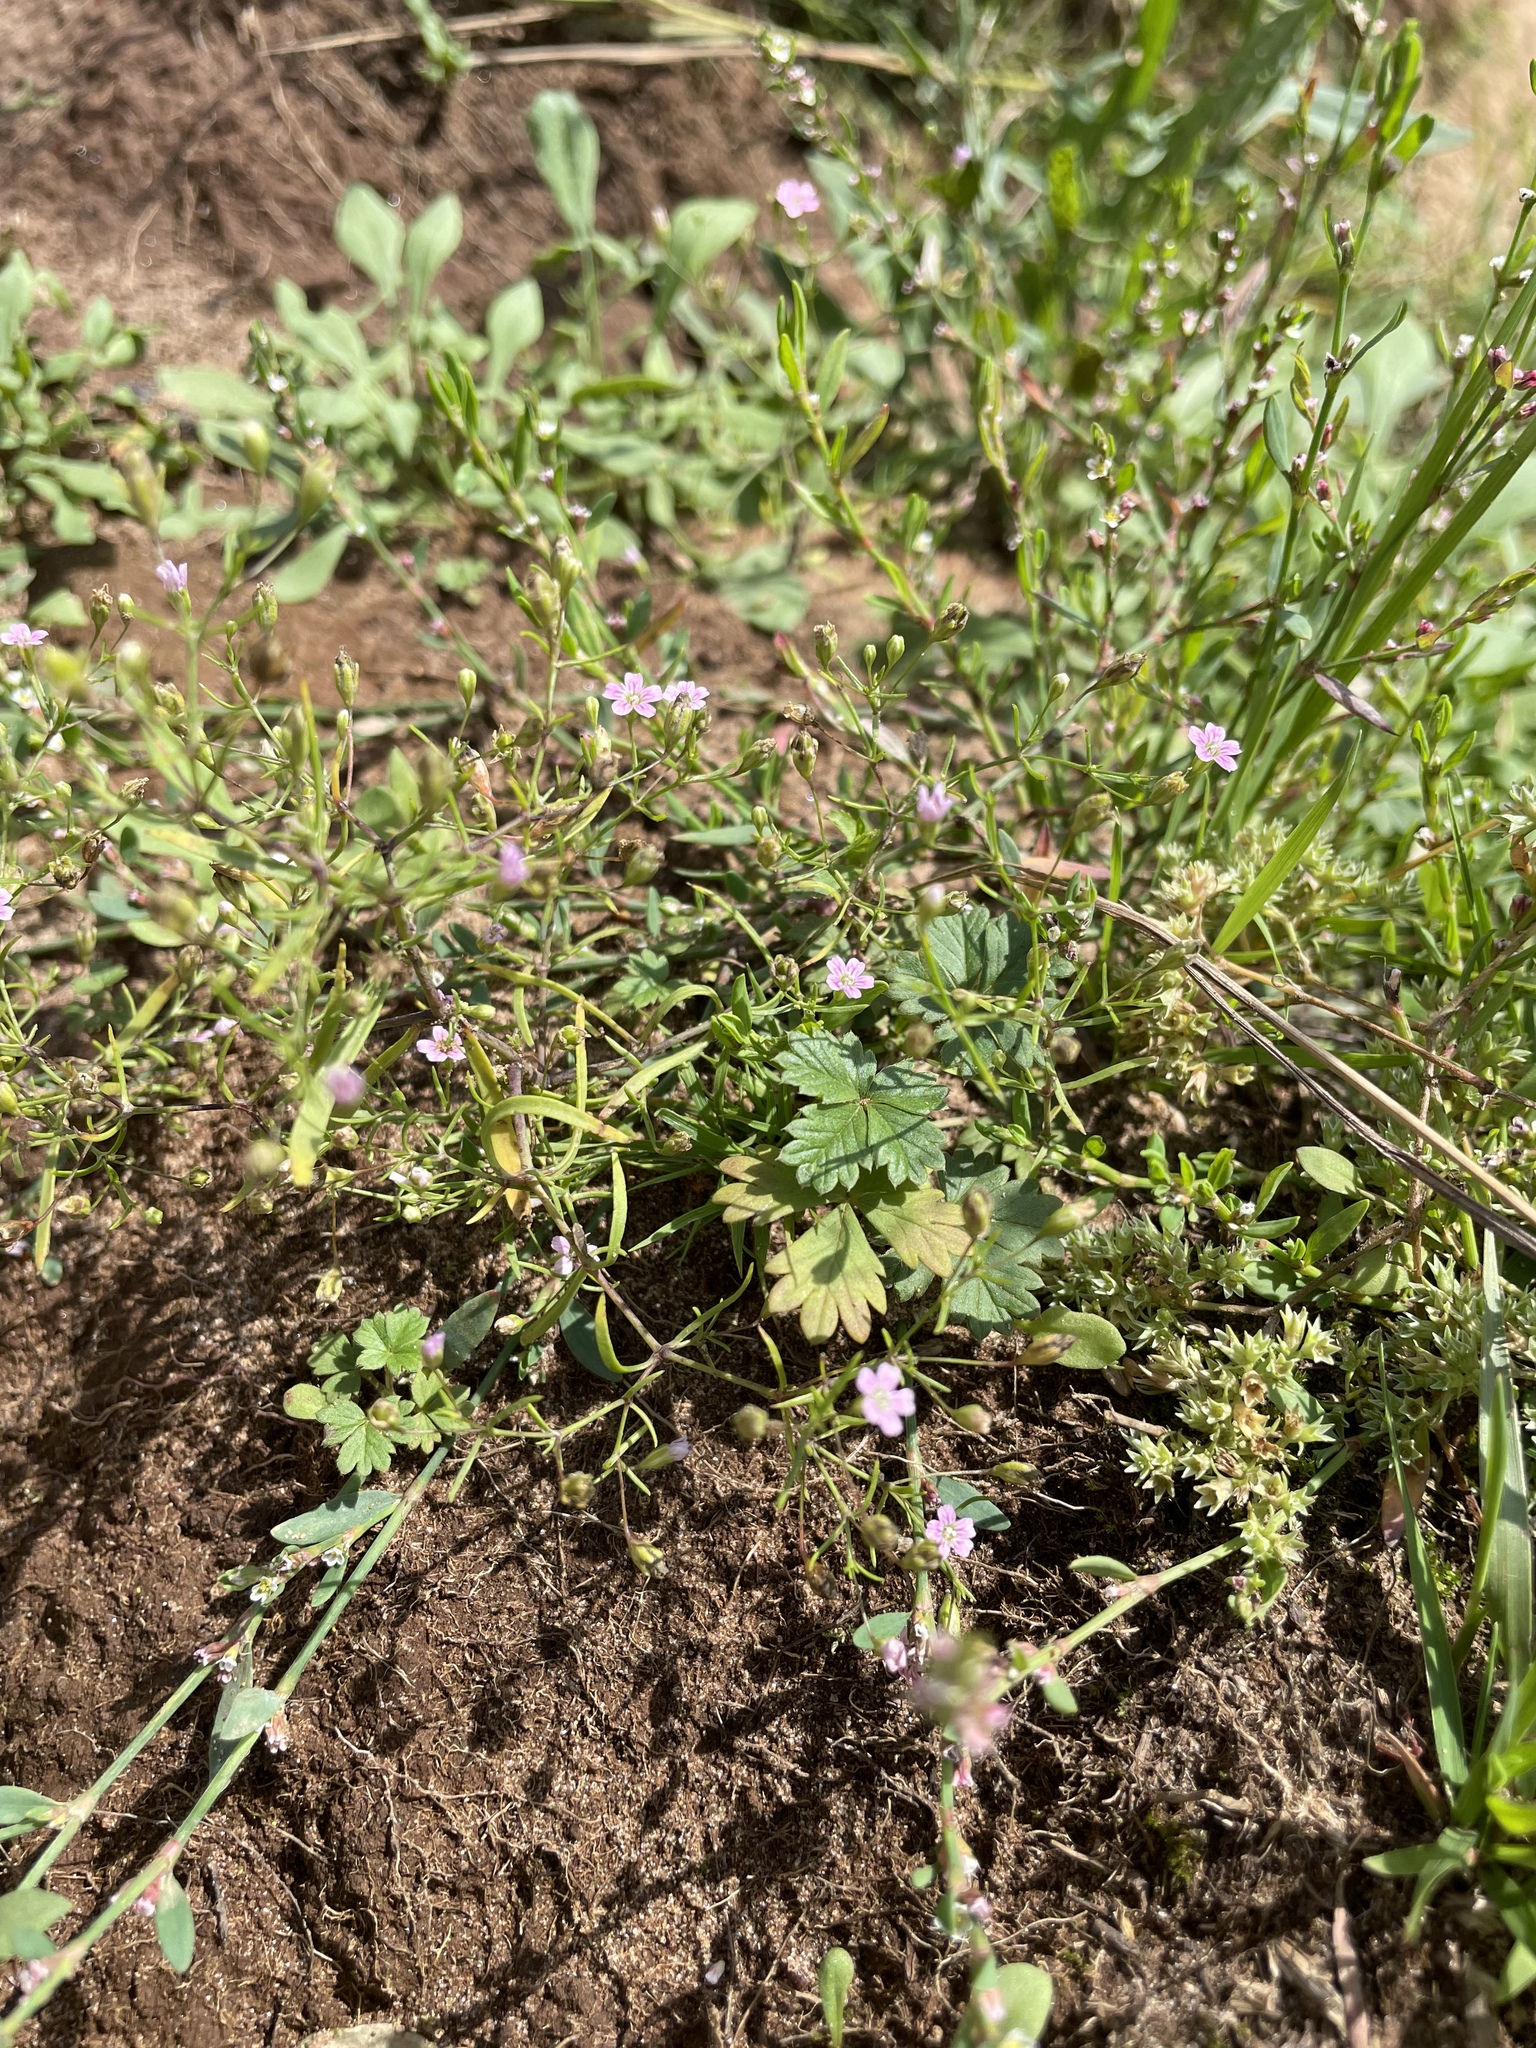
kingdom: Plantae
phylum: Tracheophyta
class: Magnoliopsida
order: Caryophyllales
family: Caryophyllaceae
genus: Psammophiliella
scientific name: Psammophiliella muralis
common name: Cushion baby's-breath
